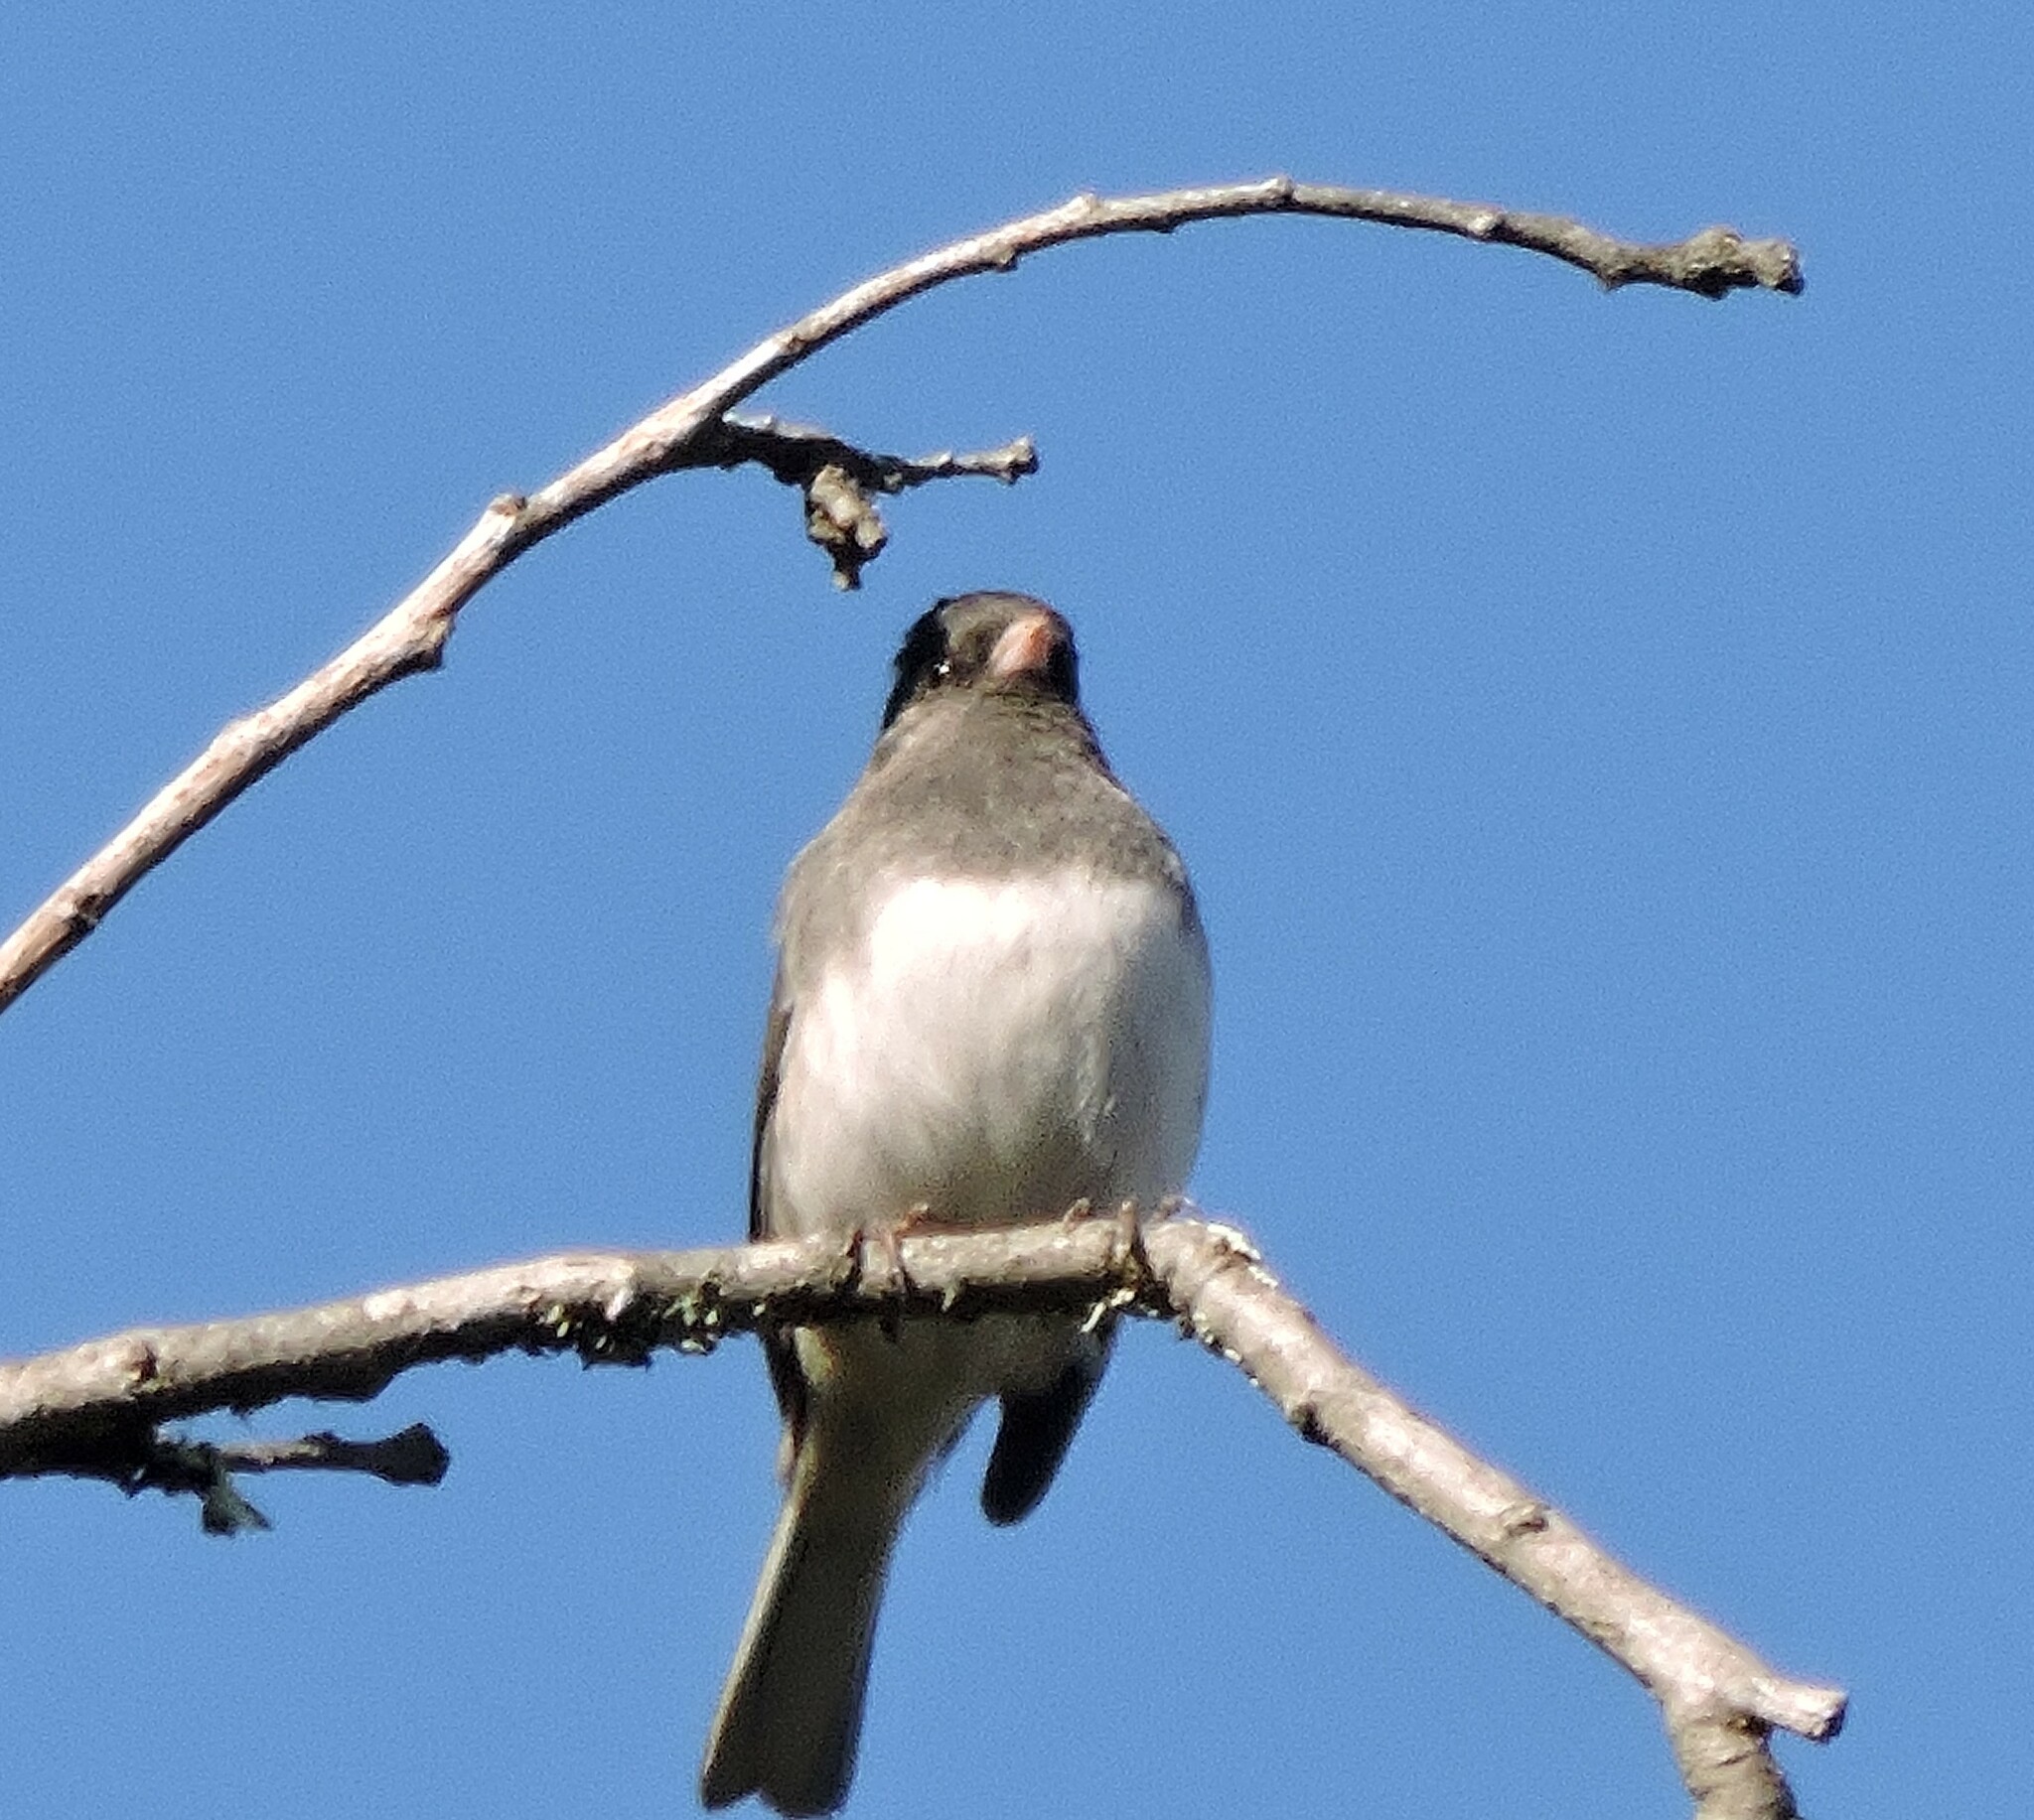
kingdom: Animalia
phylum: Chordata
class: Aves
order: Passeriformes
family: Passerellidae
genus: Junco
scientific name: Junco hyemalis
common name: Dark-eyed junco
